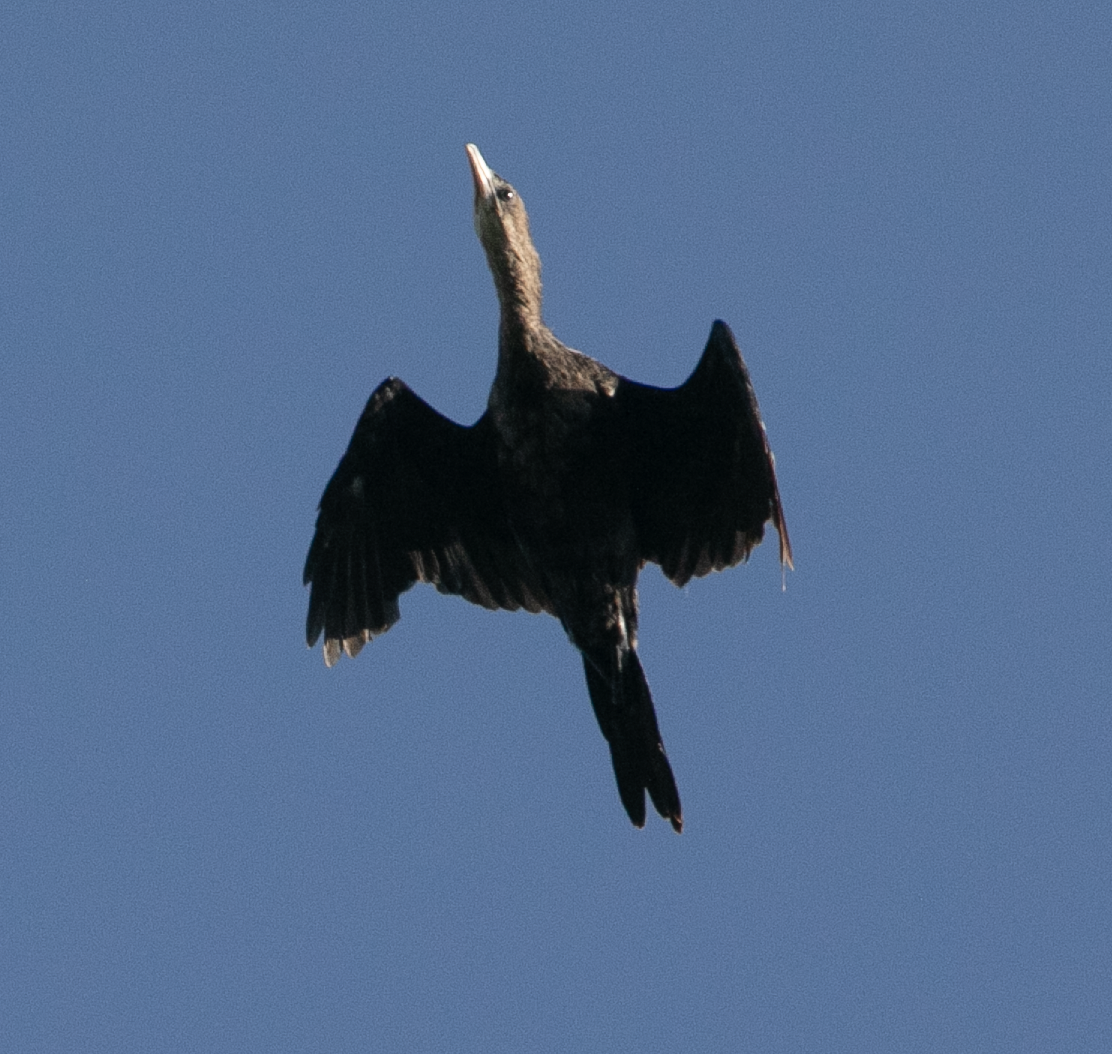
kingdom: Animalia
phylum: Chordata
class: Aves
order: Suliformes
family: Phalacrocoracidae
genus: Microcarbo
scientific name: Microcarbo pygmaeus
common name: Pygmy cormorant
